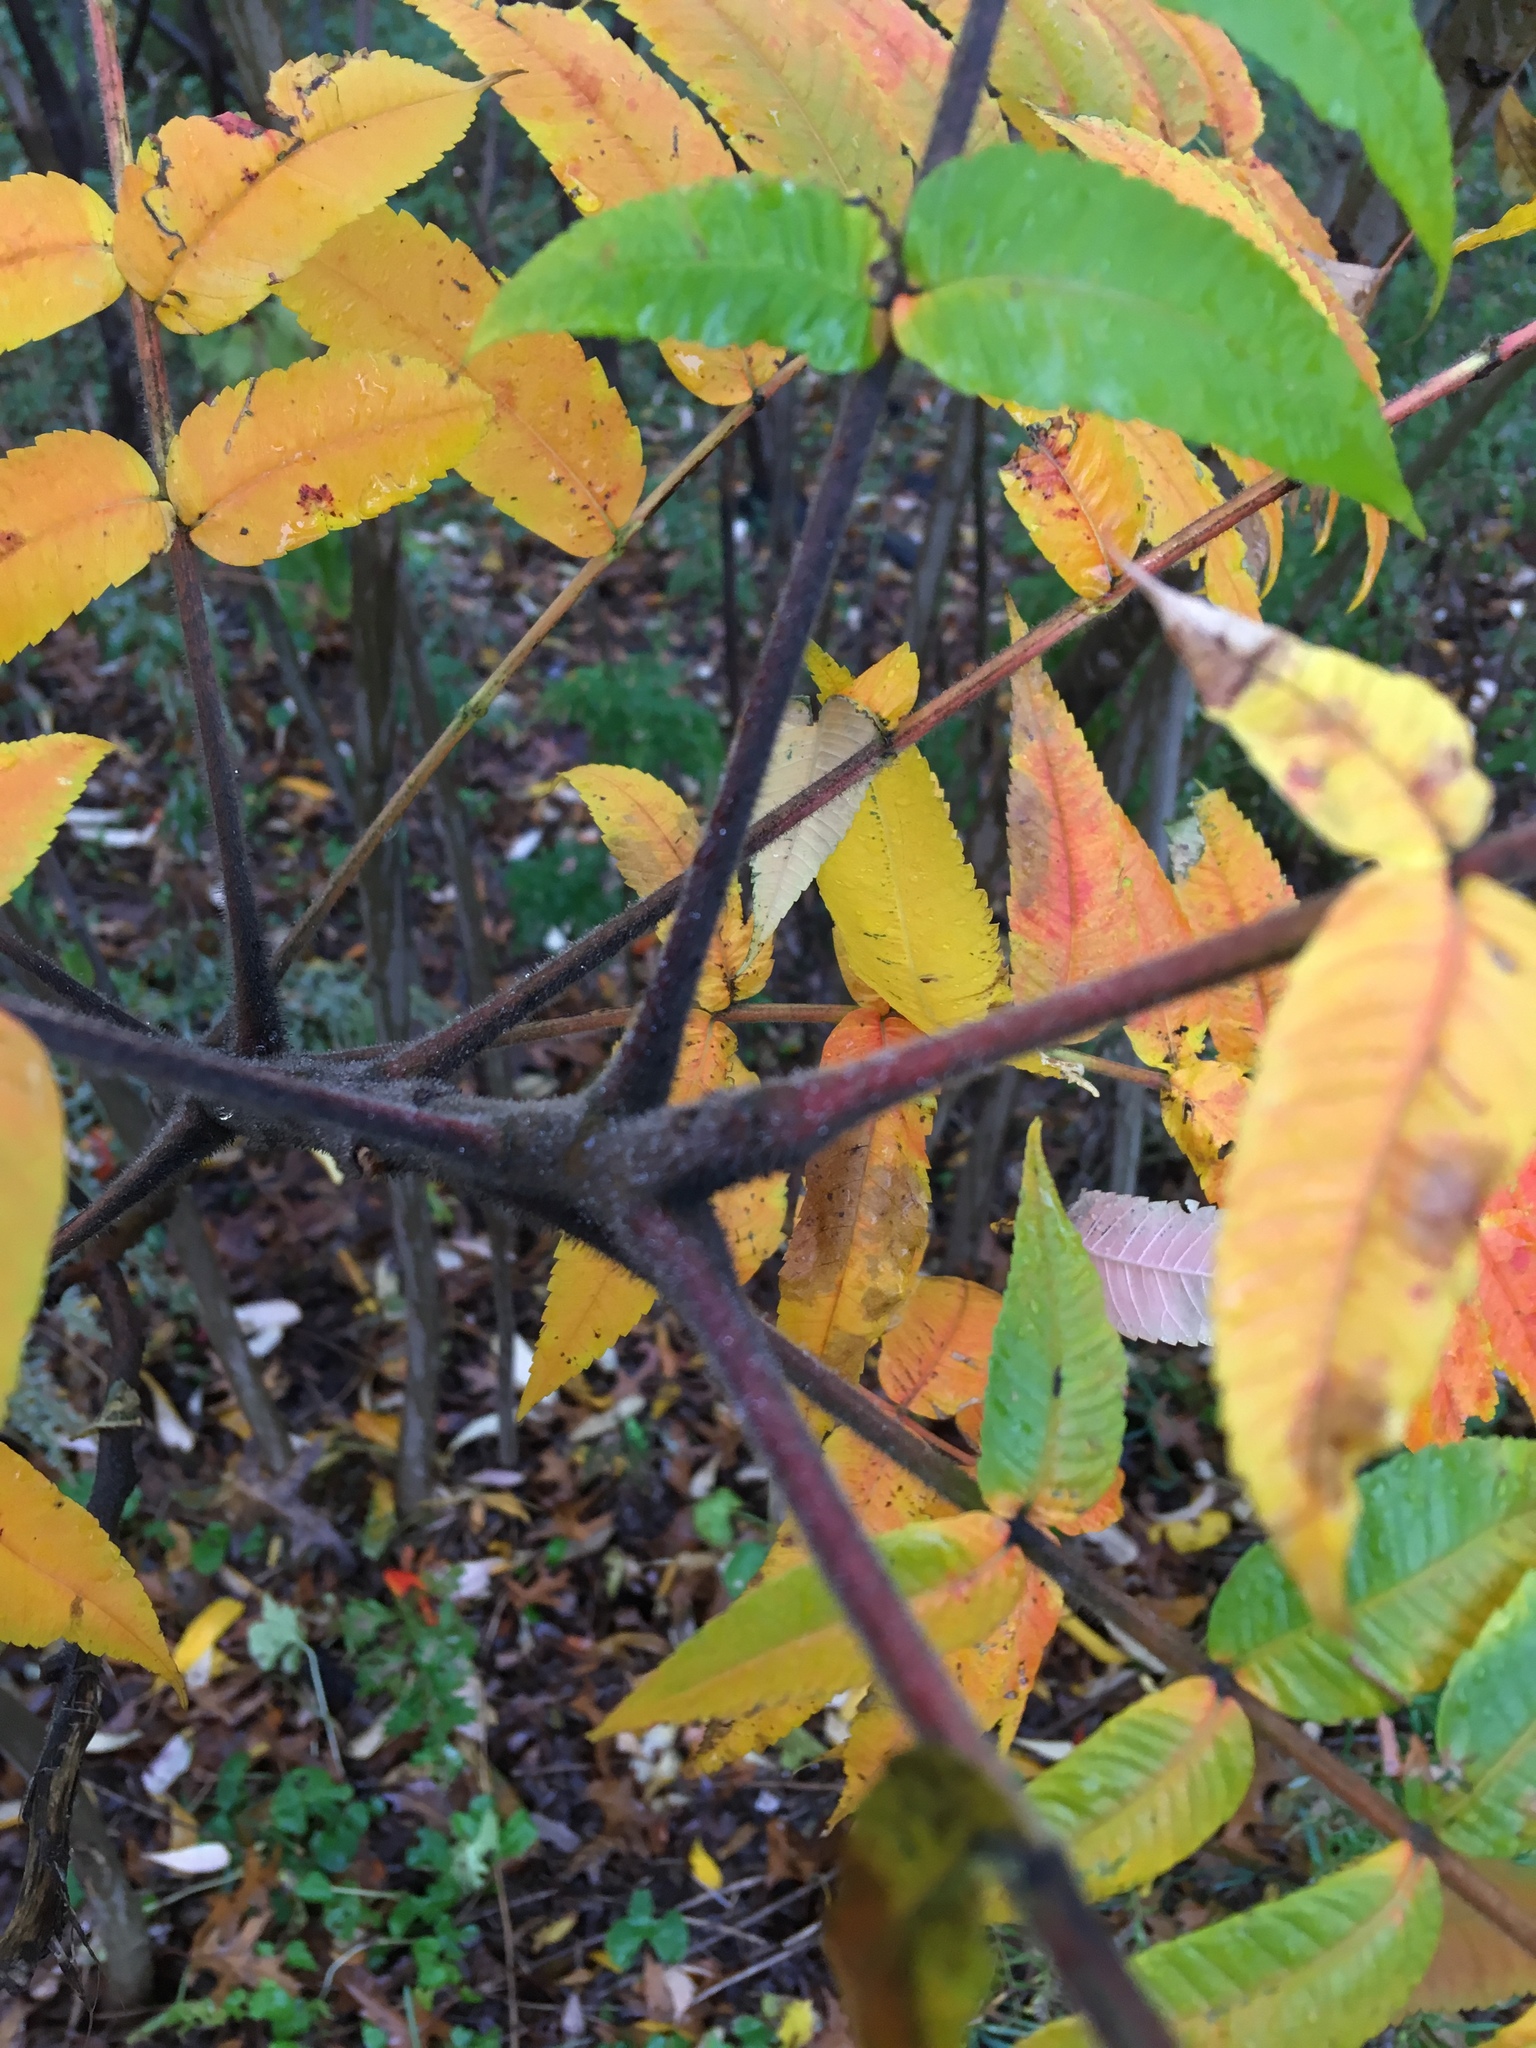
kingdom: Plantae
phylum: Tracheophyta
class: Magnoliopsida
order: Sapindales
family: Anacardiaceae
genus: Rhus
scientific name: Rhus typhina
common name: Staghorn sumac
